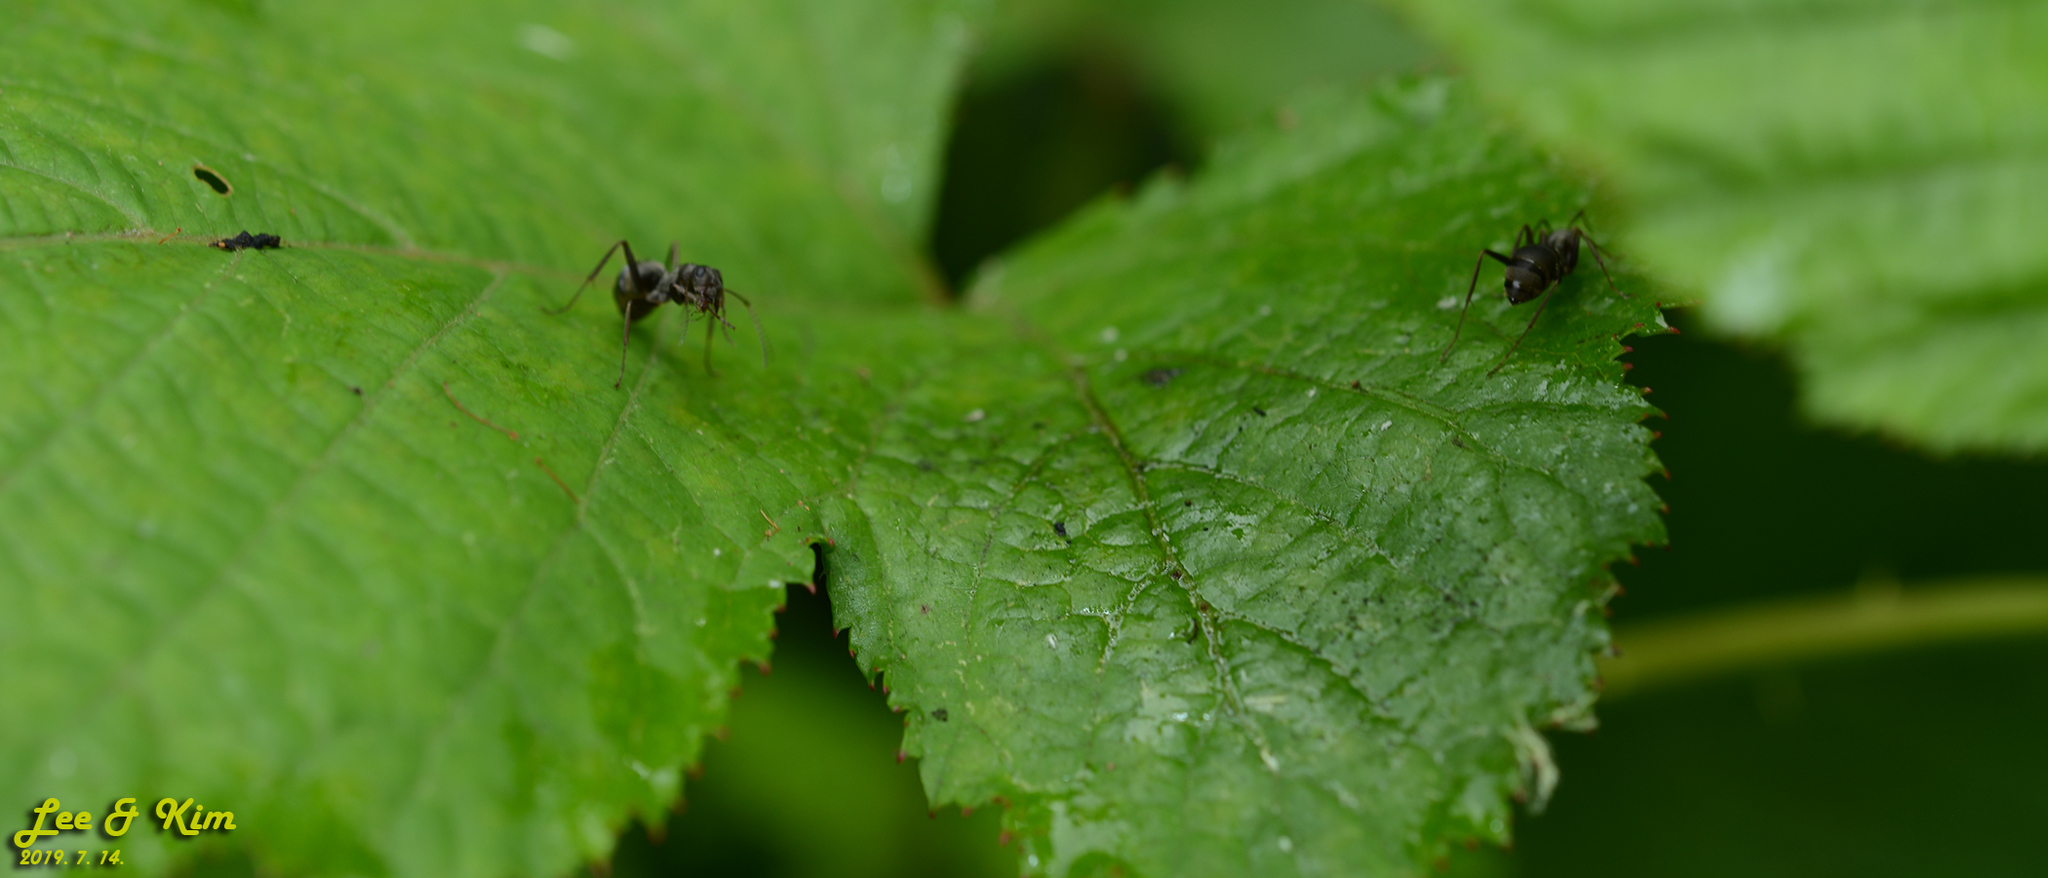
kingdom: Animalia
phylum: Arthropoda
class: Insecta
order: Hymenoptera
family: Formicidae
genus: Formica
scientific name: Formica japonica
